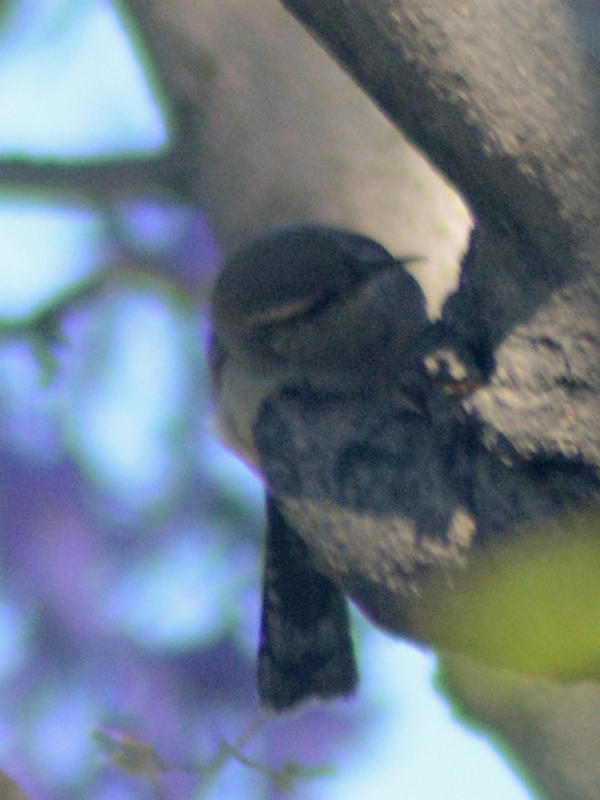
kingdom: Animalia
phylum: Chordata
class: Aves
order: Passeriformes
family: Troglodytidae
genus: Thryomanes
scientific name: Thryomanes bewickii
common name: Bewick's wren
